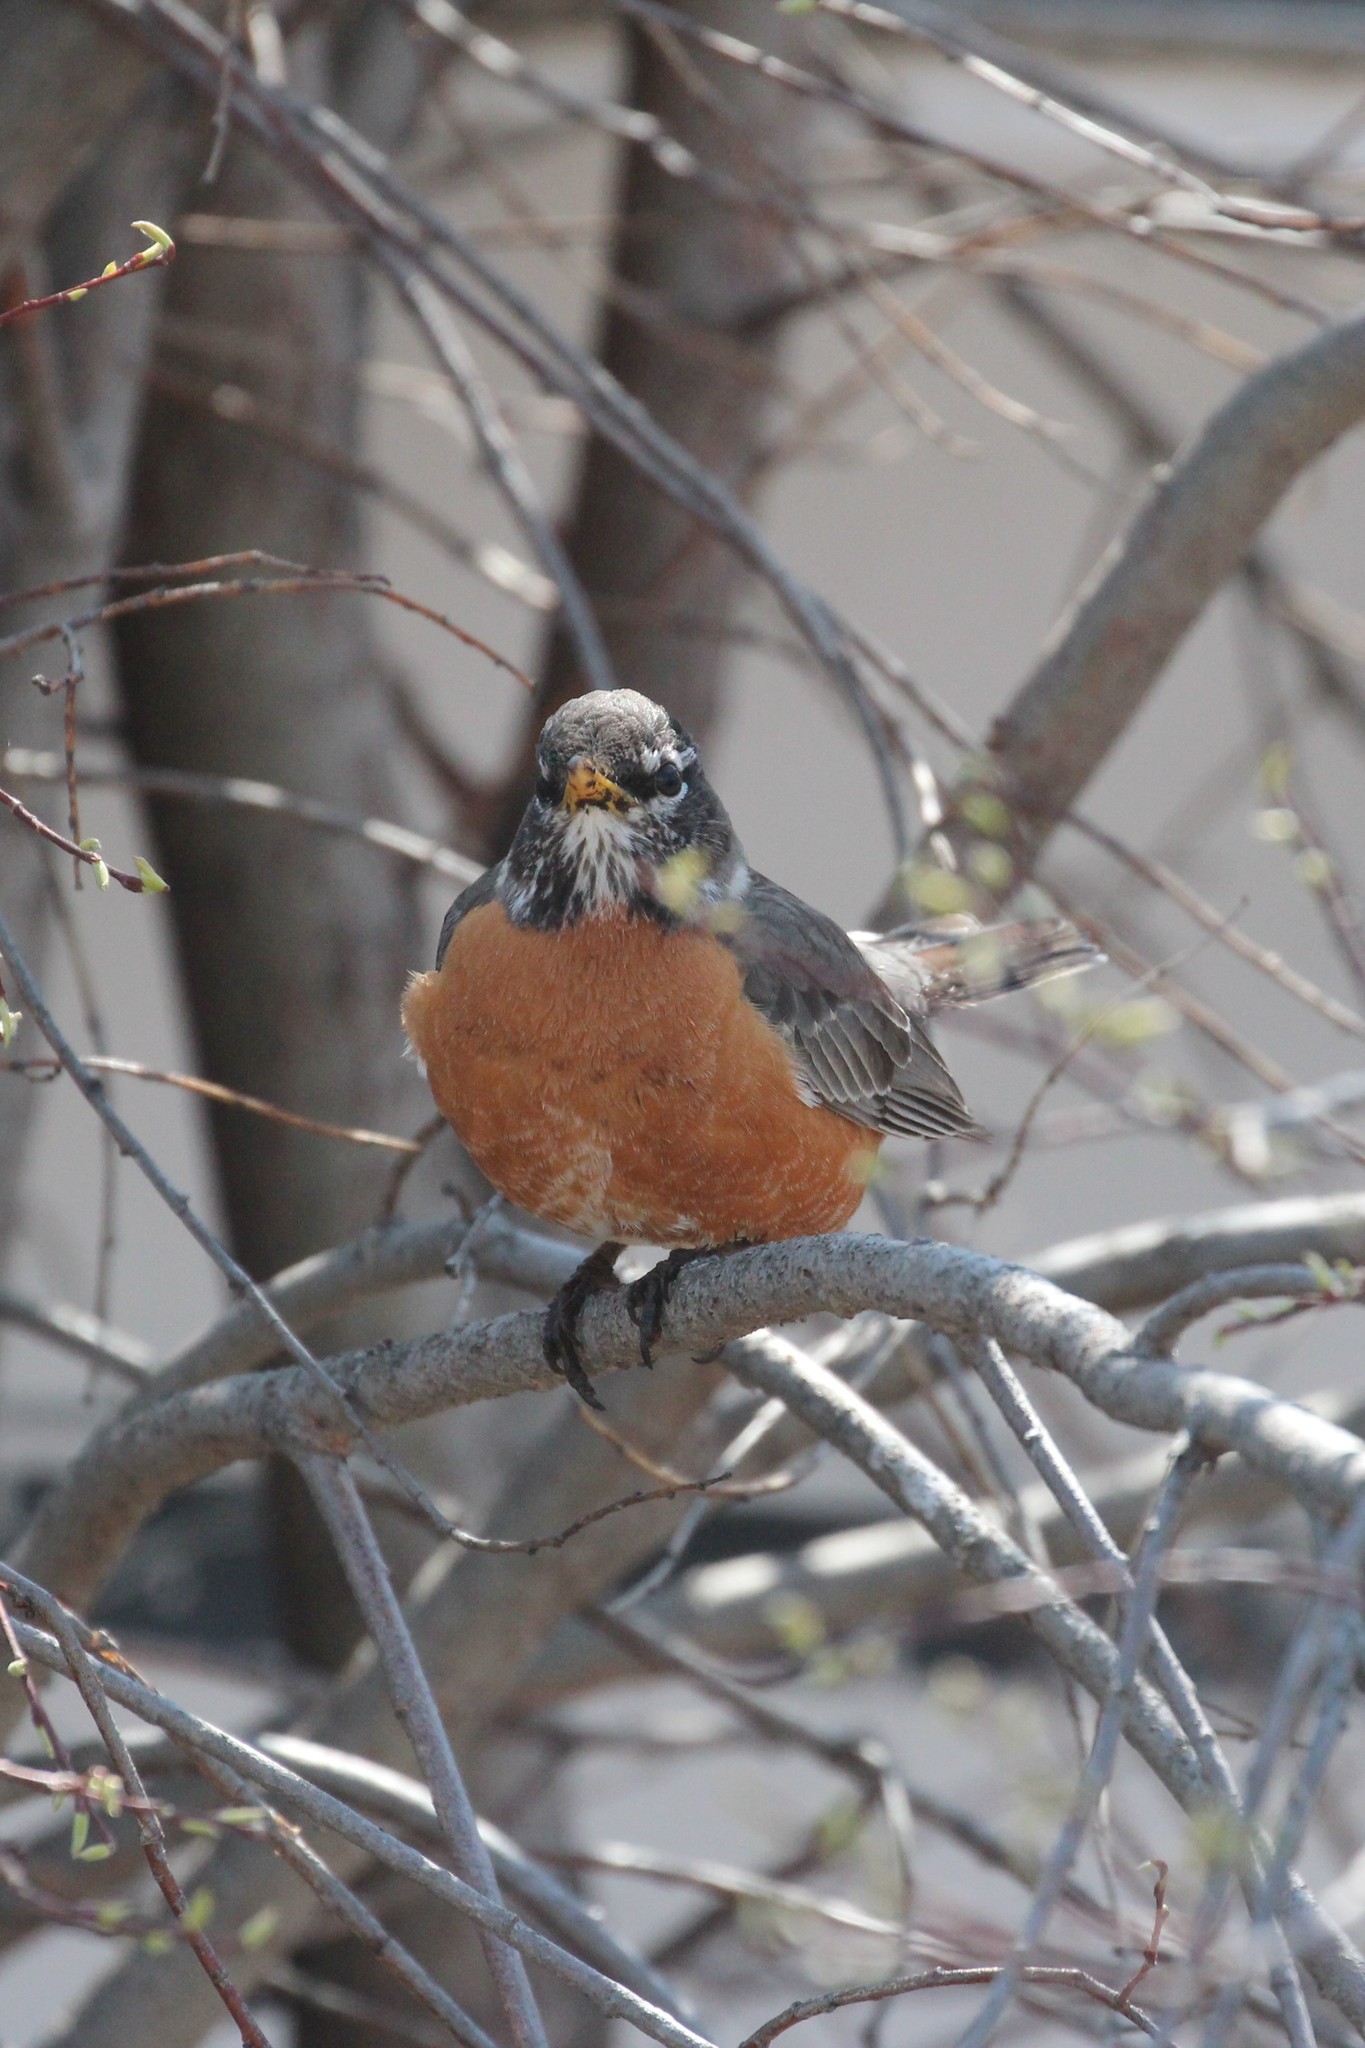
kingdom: Animalia
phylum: Chordata
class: Aves
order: Passeriformes
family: Turdidae
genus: Turdus
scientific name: Turdus migratorius
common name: American robin
